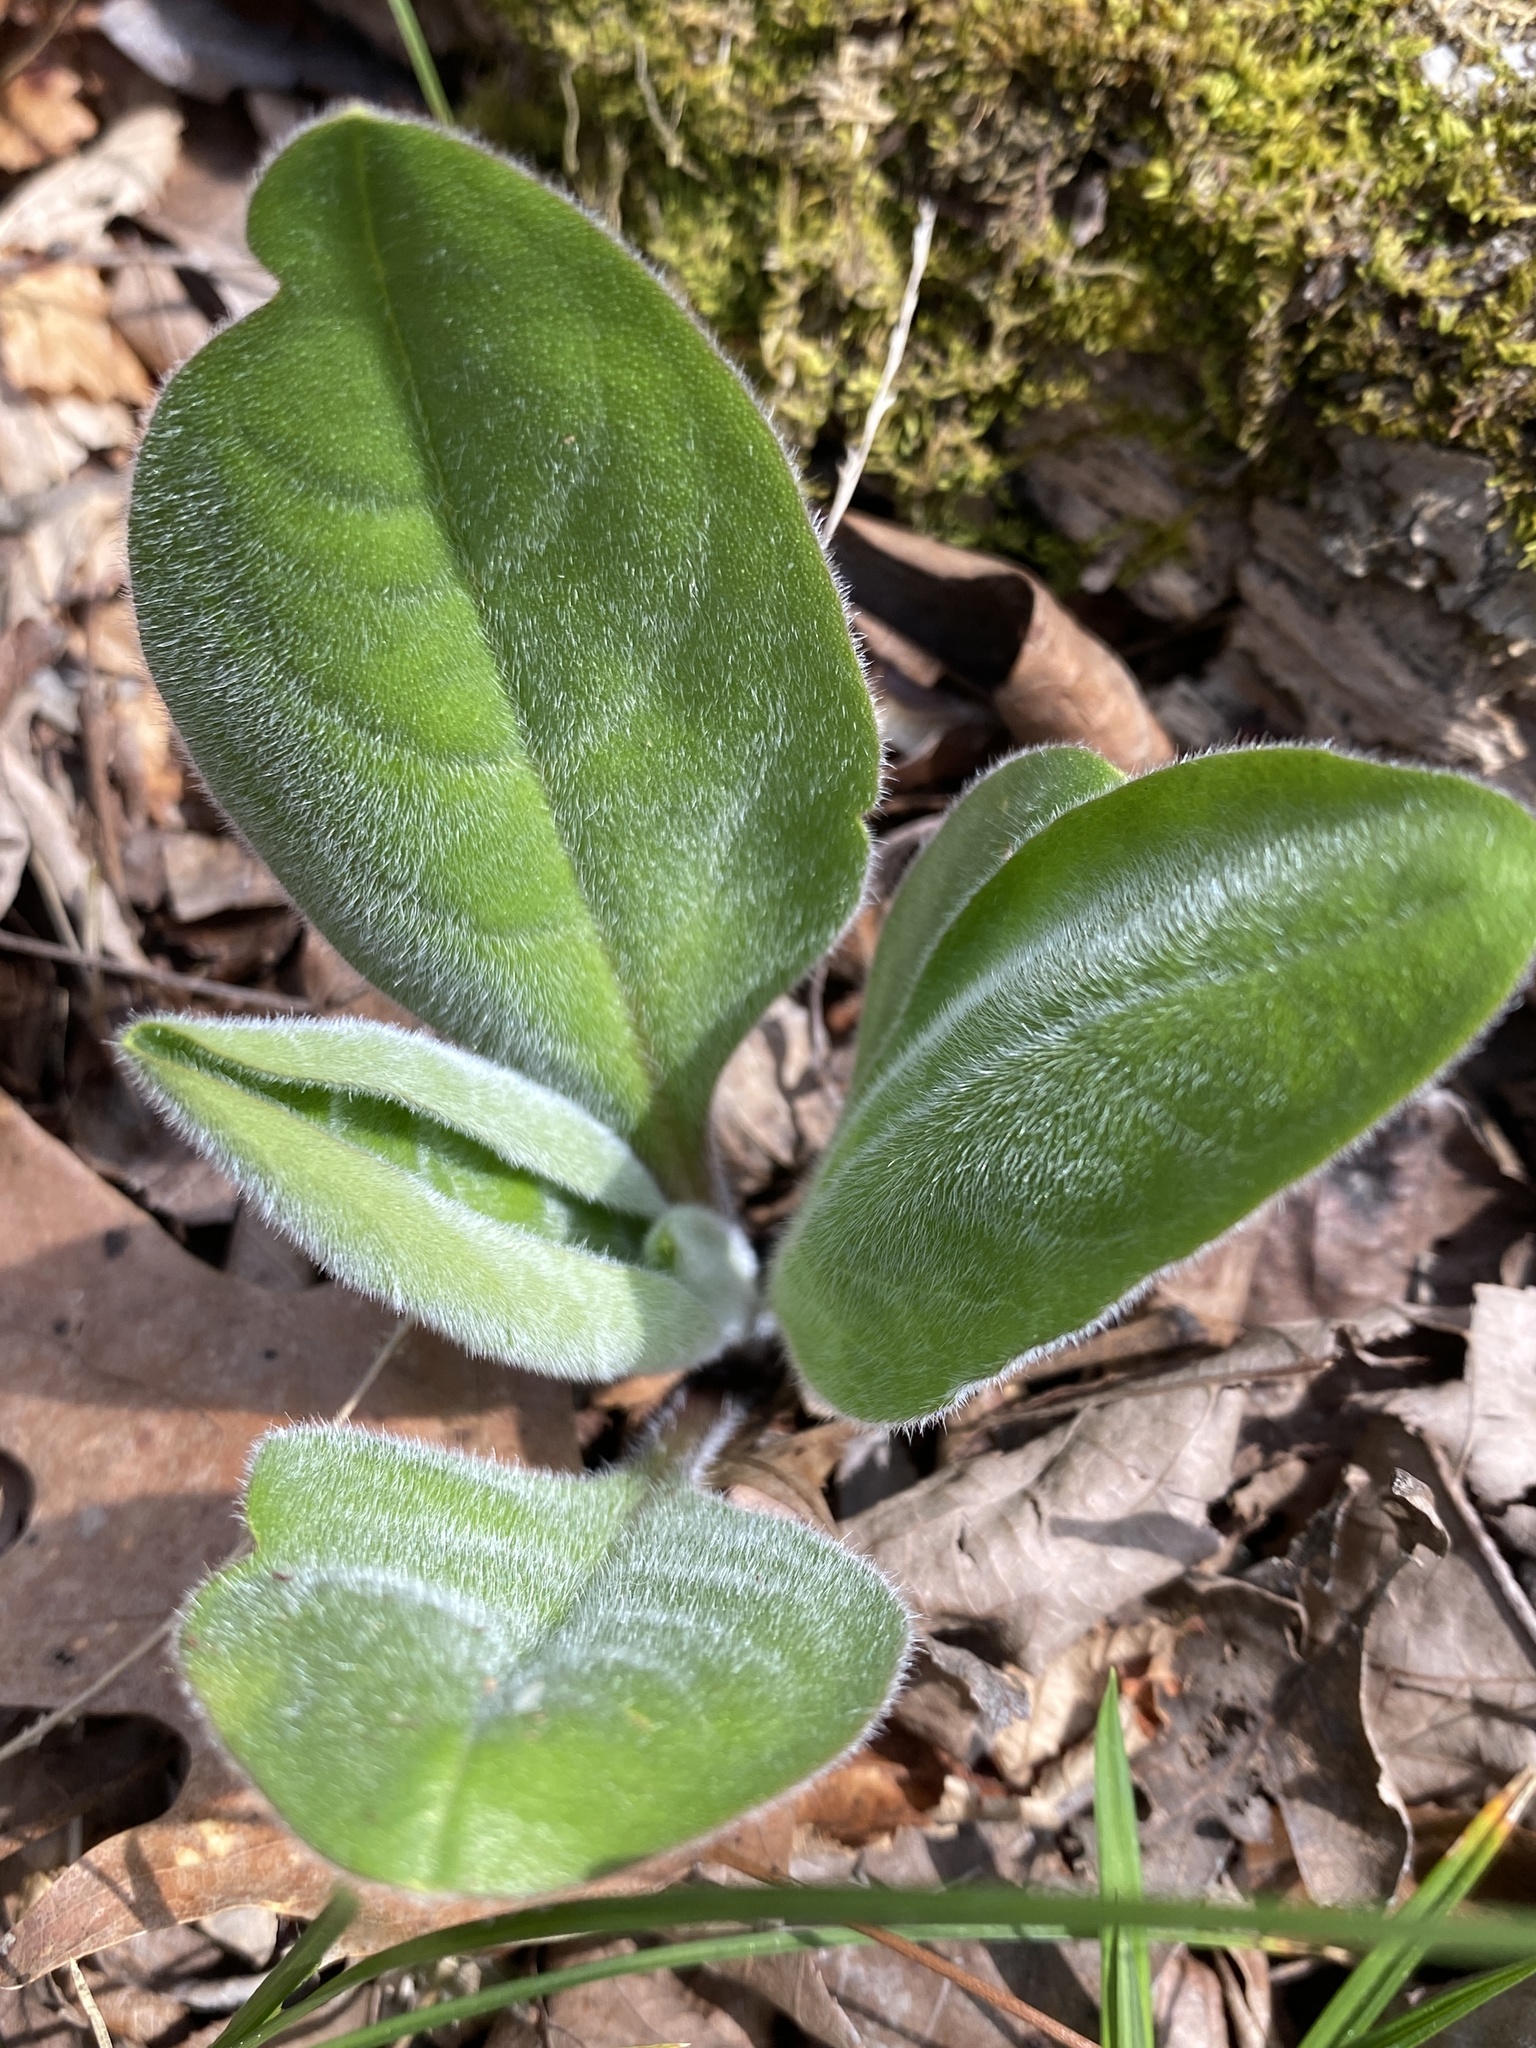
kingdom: Plantae
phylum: Tracheophyta
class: Magnoliopsida
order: Boraginales
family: Boraginaceae
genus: Andersonglossum
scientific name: Andersonglossum virginianum
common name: Wild comfrey
